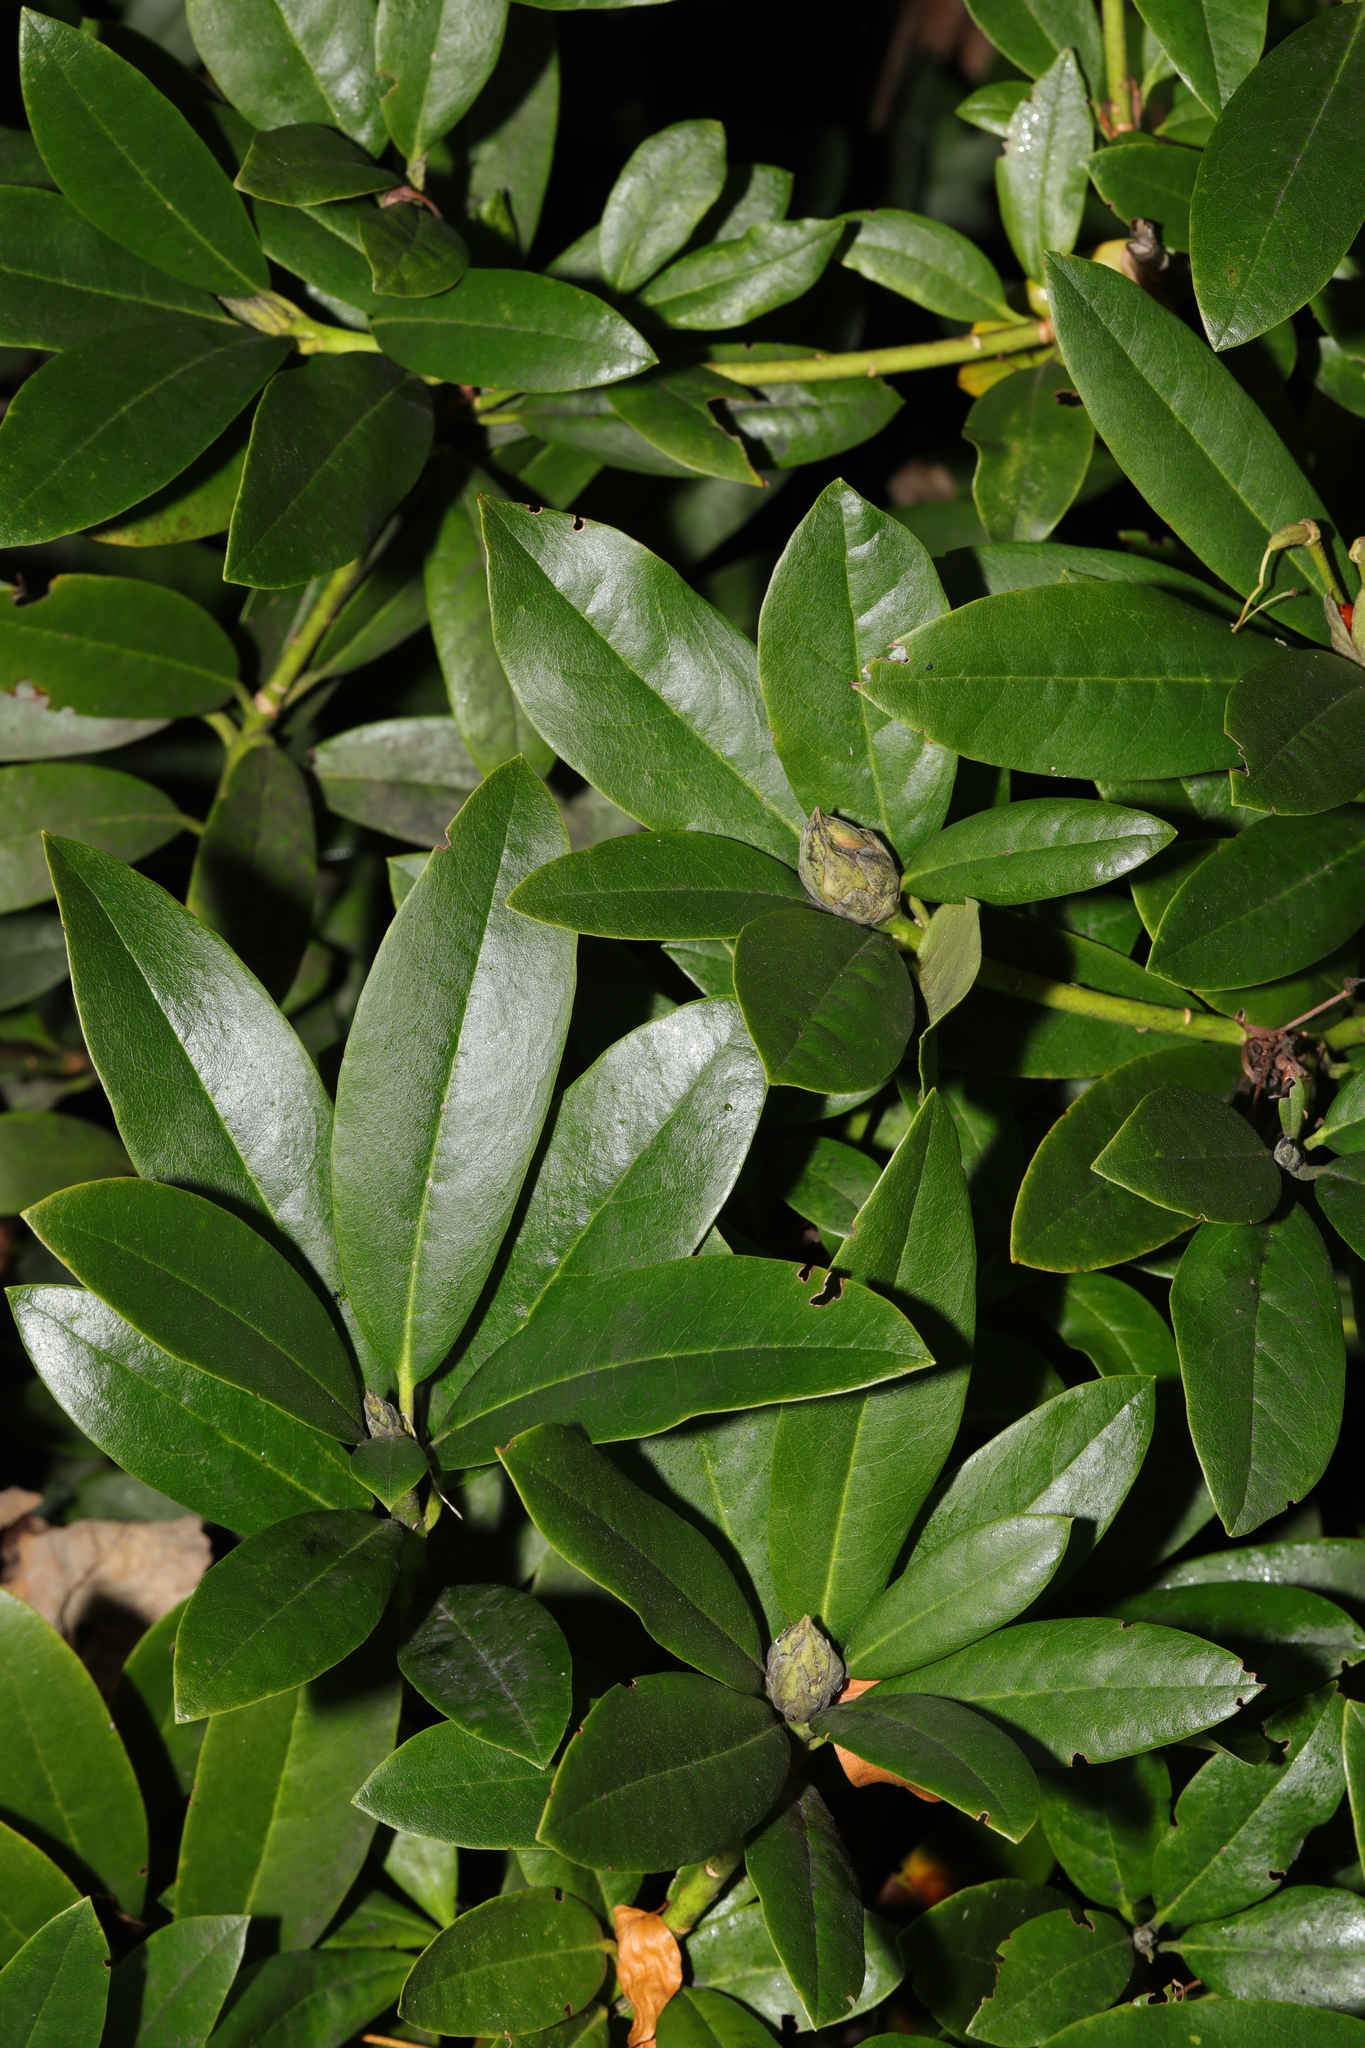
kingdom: Plantae
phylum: Tracheophyta
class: Magnoliopsida
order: Ericales
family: Ericaceae
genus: Rhododendron
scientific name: Rhododendron ponticum
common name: Rhododendron
